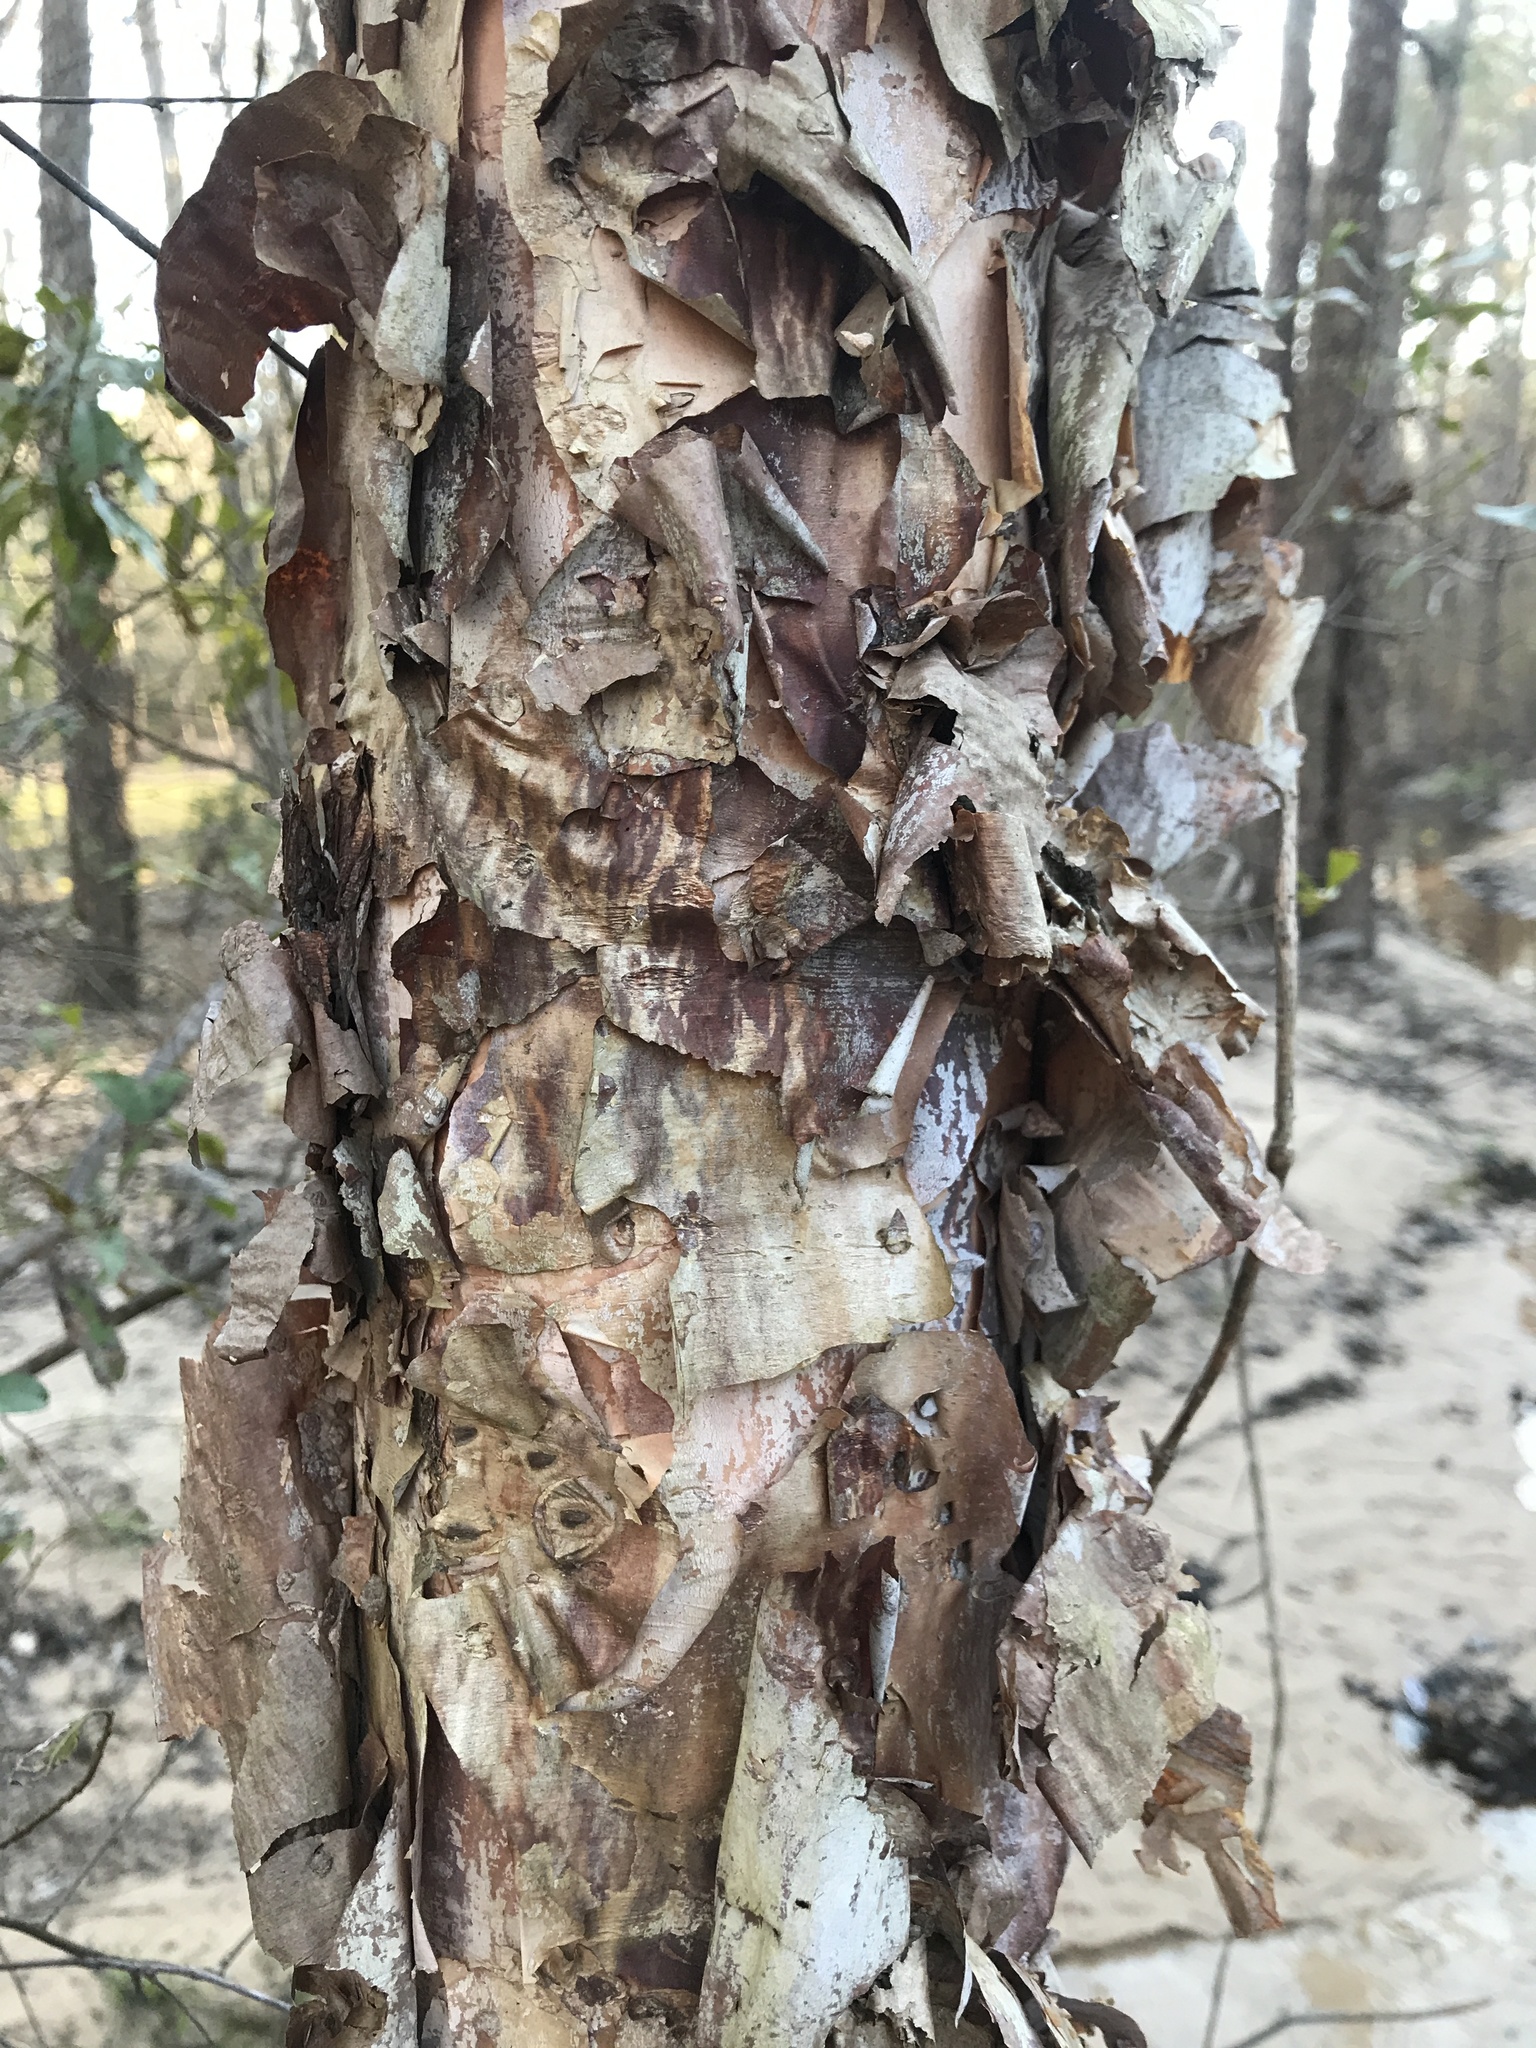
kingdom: Plantae
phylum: Tracheophyta
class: Magnoliopsida
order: Fagales
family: Betulaceae
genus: Betula
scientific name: Betula nigra
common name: Black birch
